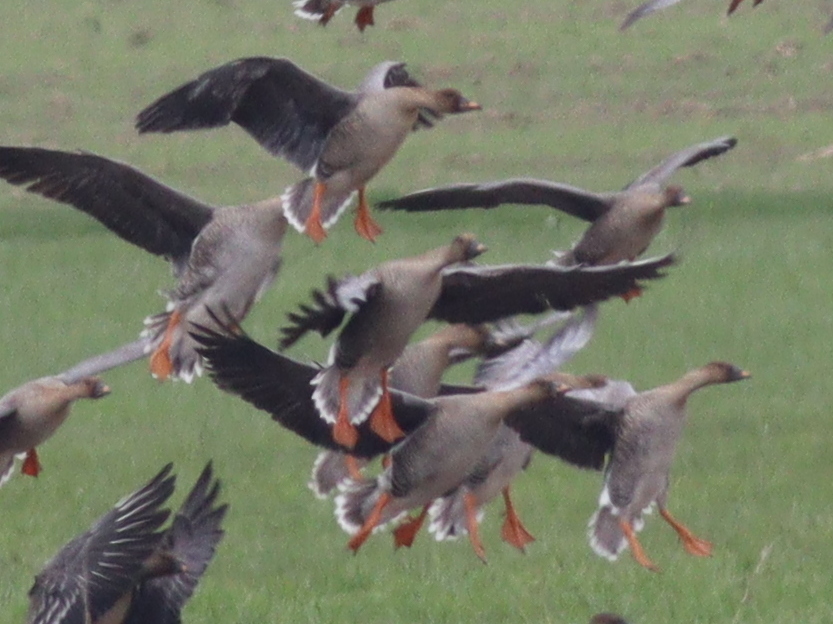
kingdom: Animalia
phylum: Chordata
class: Aves
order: Anseriformes
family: Anatidae
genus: Anser
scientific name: Anser serrirostris
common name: Tundra bean goose
